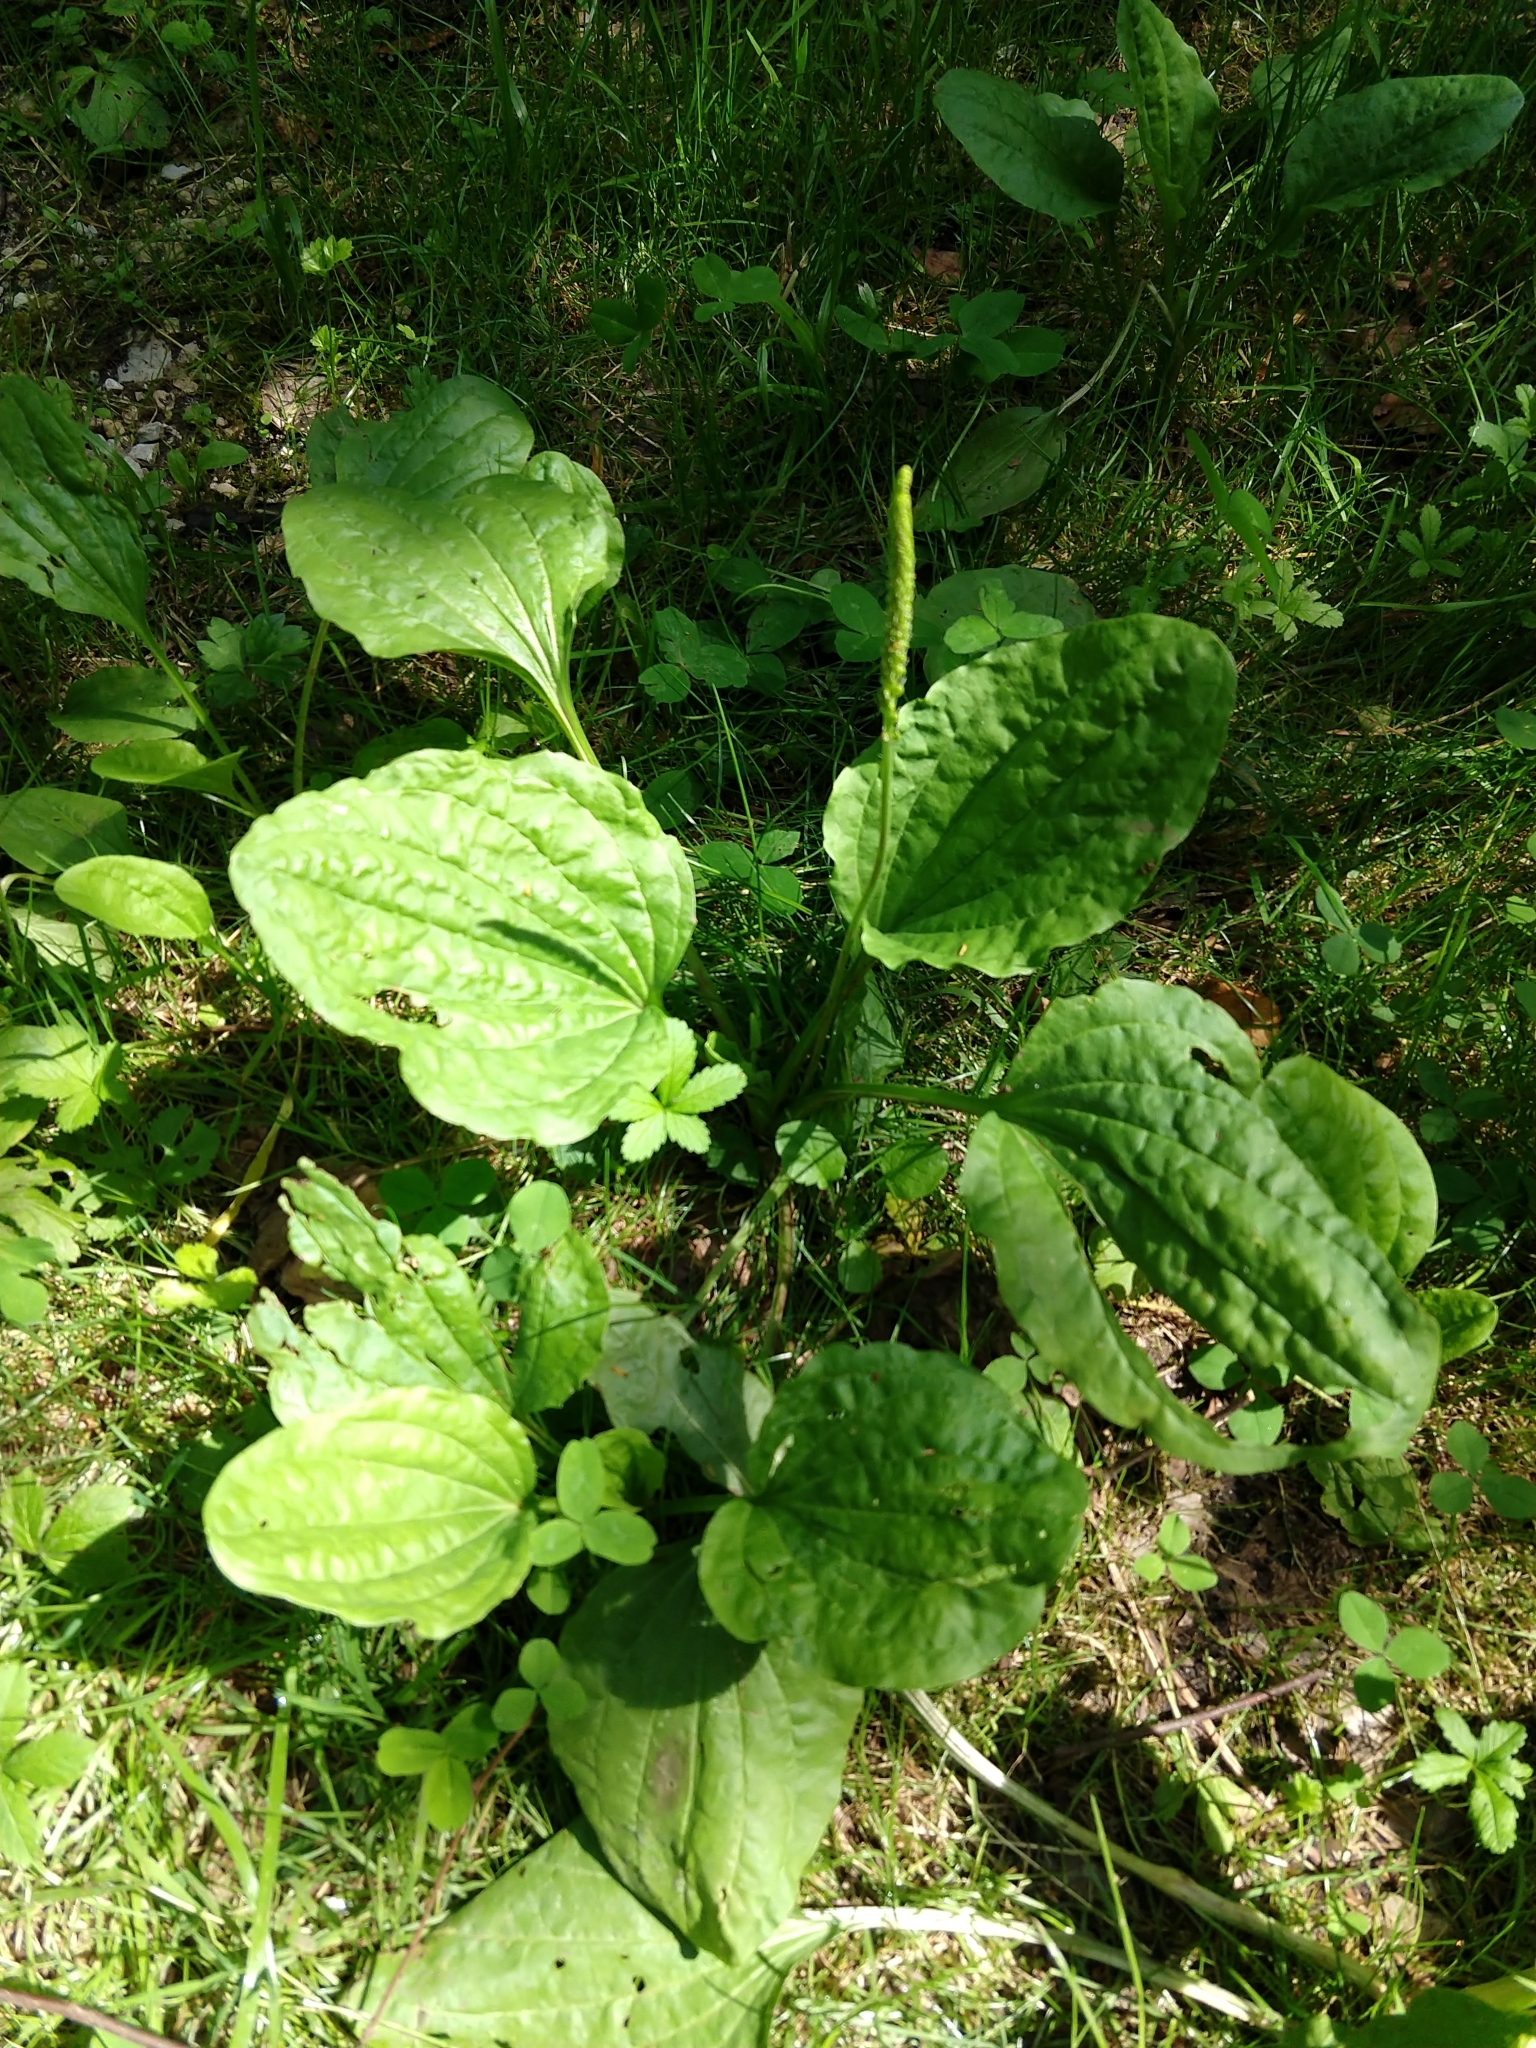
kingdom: Plantae
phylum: Tracheophyta
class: Magnoliopsida
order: Lamiales
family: Plantaginaceae
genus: Plantago
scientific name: Plantago major
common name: Common plantain
